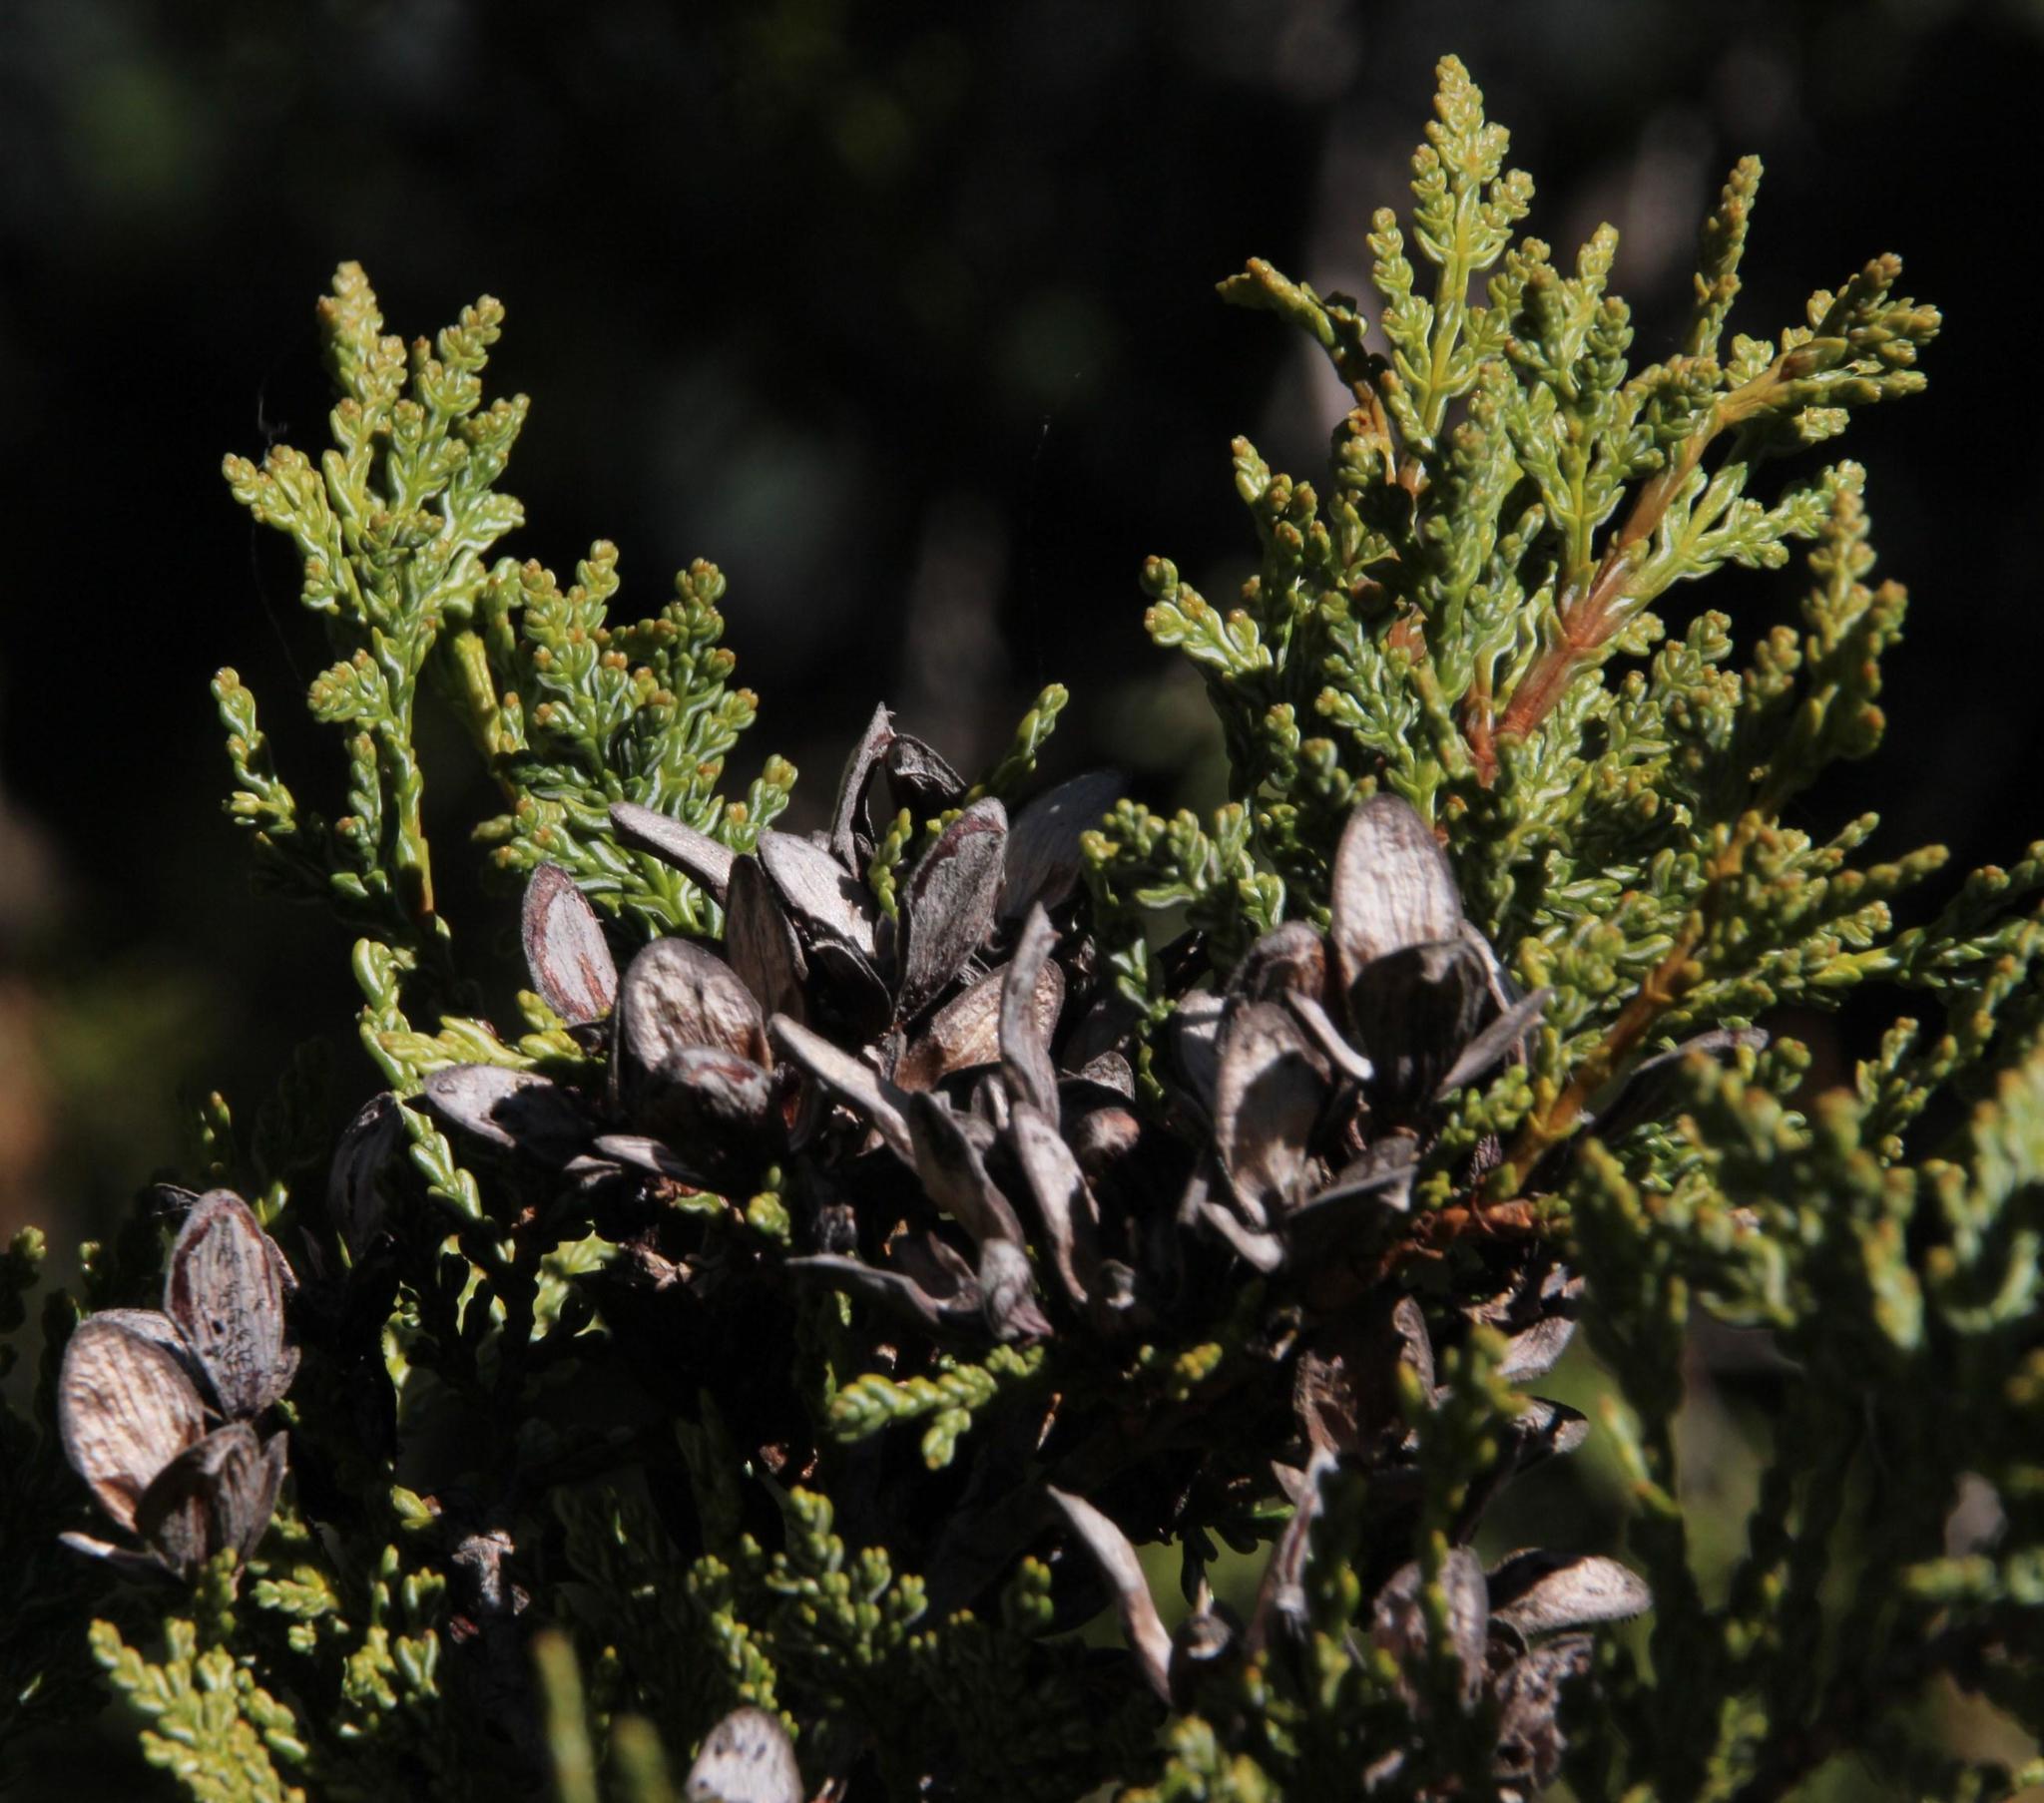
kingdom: Plantae
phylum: Tracheophyta
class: Pinopsida
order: Pinales
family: Cupressaceae
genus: Austrocedrus
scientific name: Austrocedrus chilensis
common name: Chilean incense-cedar
